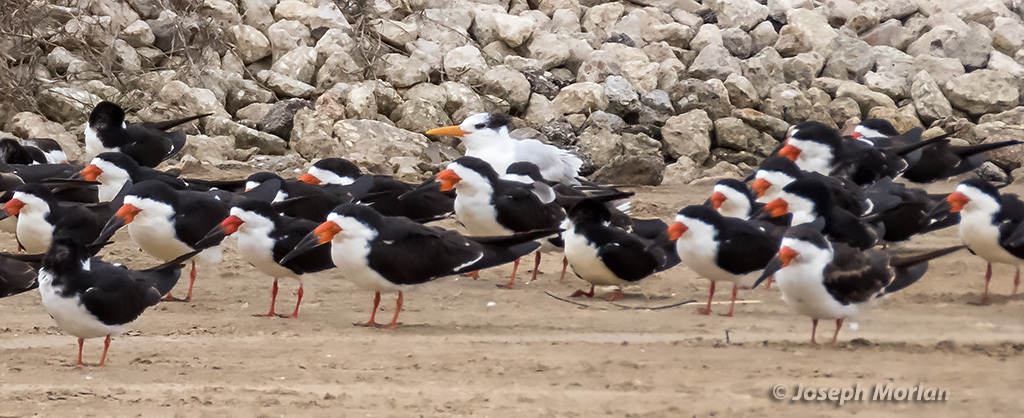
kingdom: Animalia
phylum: Chordata
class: Aves
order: Charadriiformes
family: Laridae
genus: Rynchops
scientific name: Rynchops niger
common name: Black skimmer
